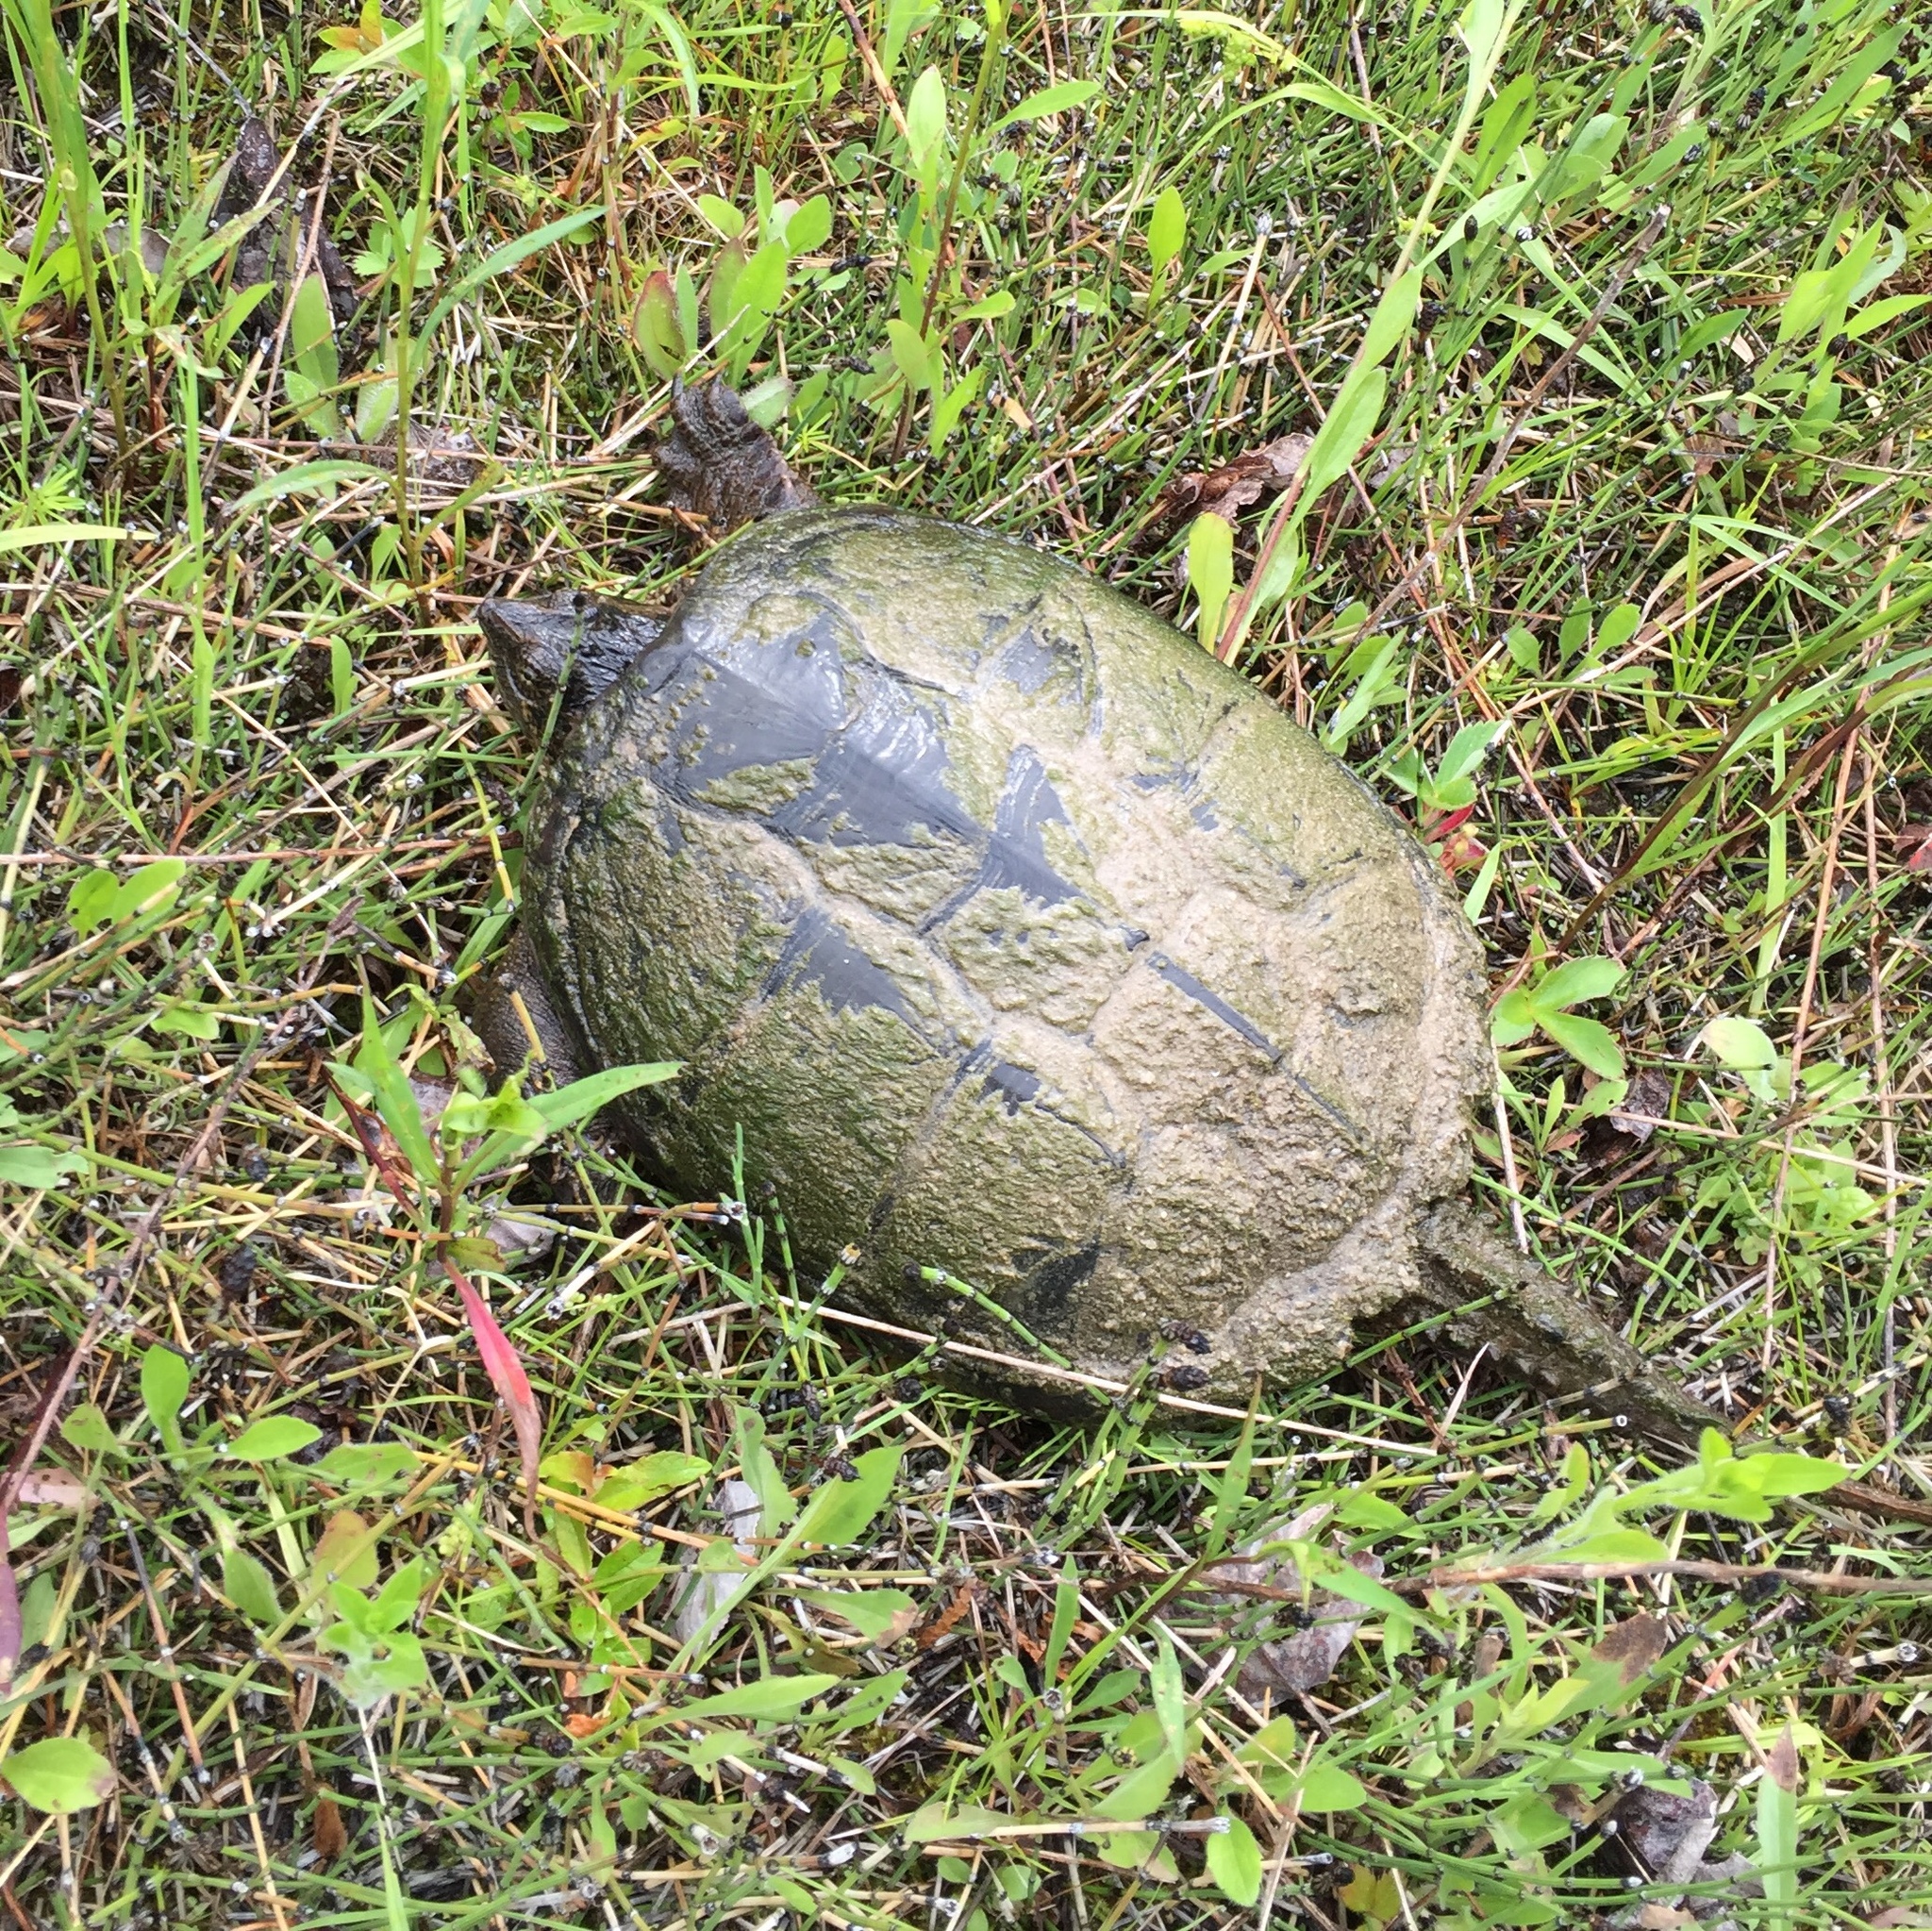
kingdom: Animalia
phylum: Chordata
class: Testudines
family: Chelydridae
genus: Chelydra
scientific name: Chelydra serpentina
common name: Common snapping turtle
